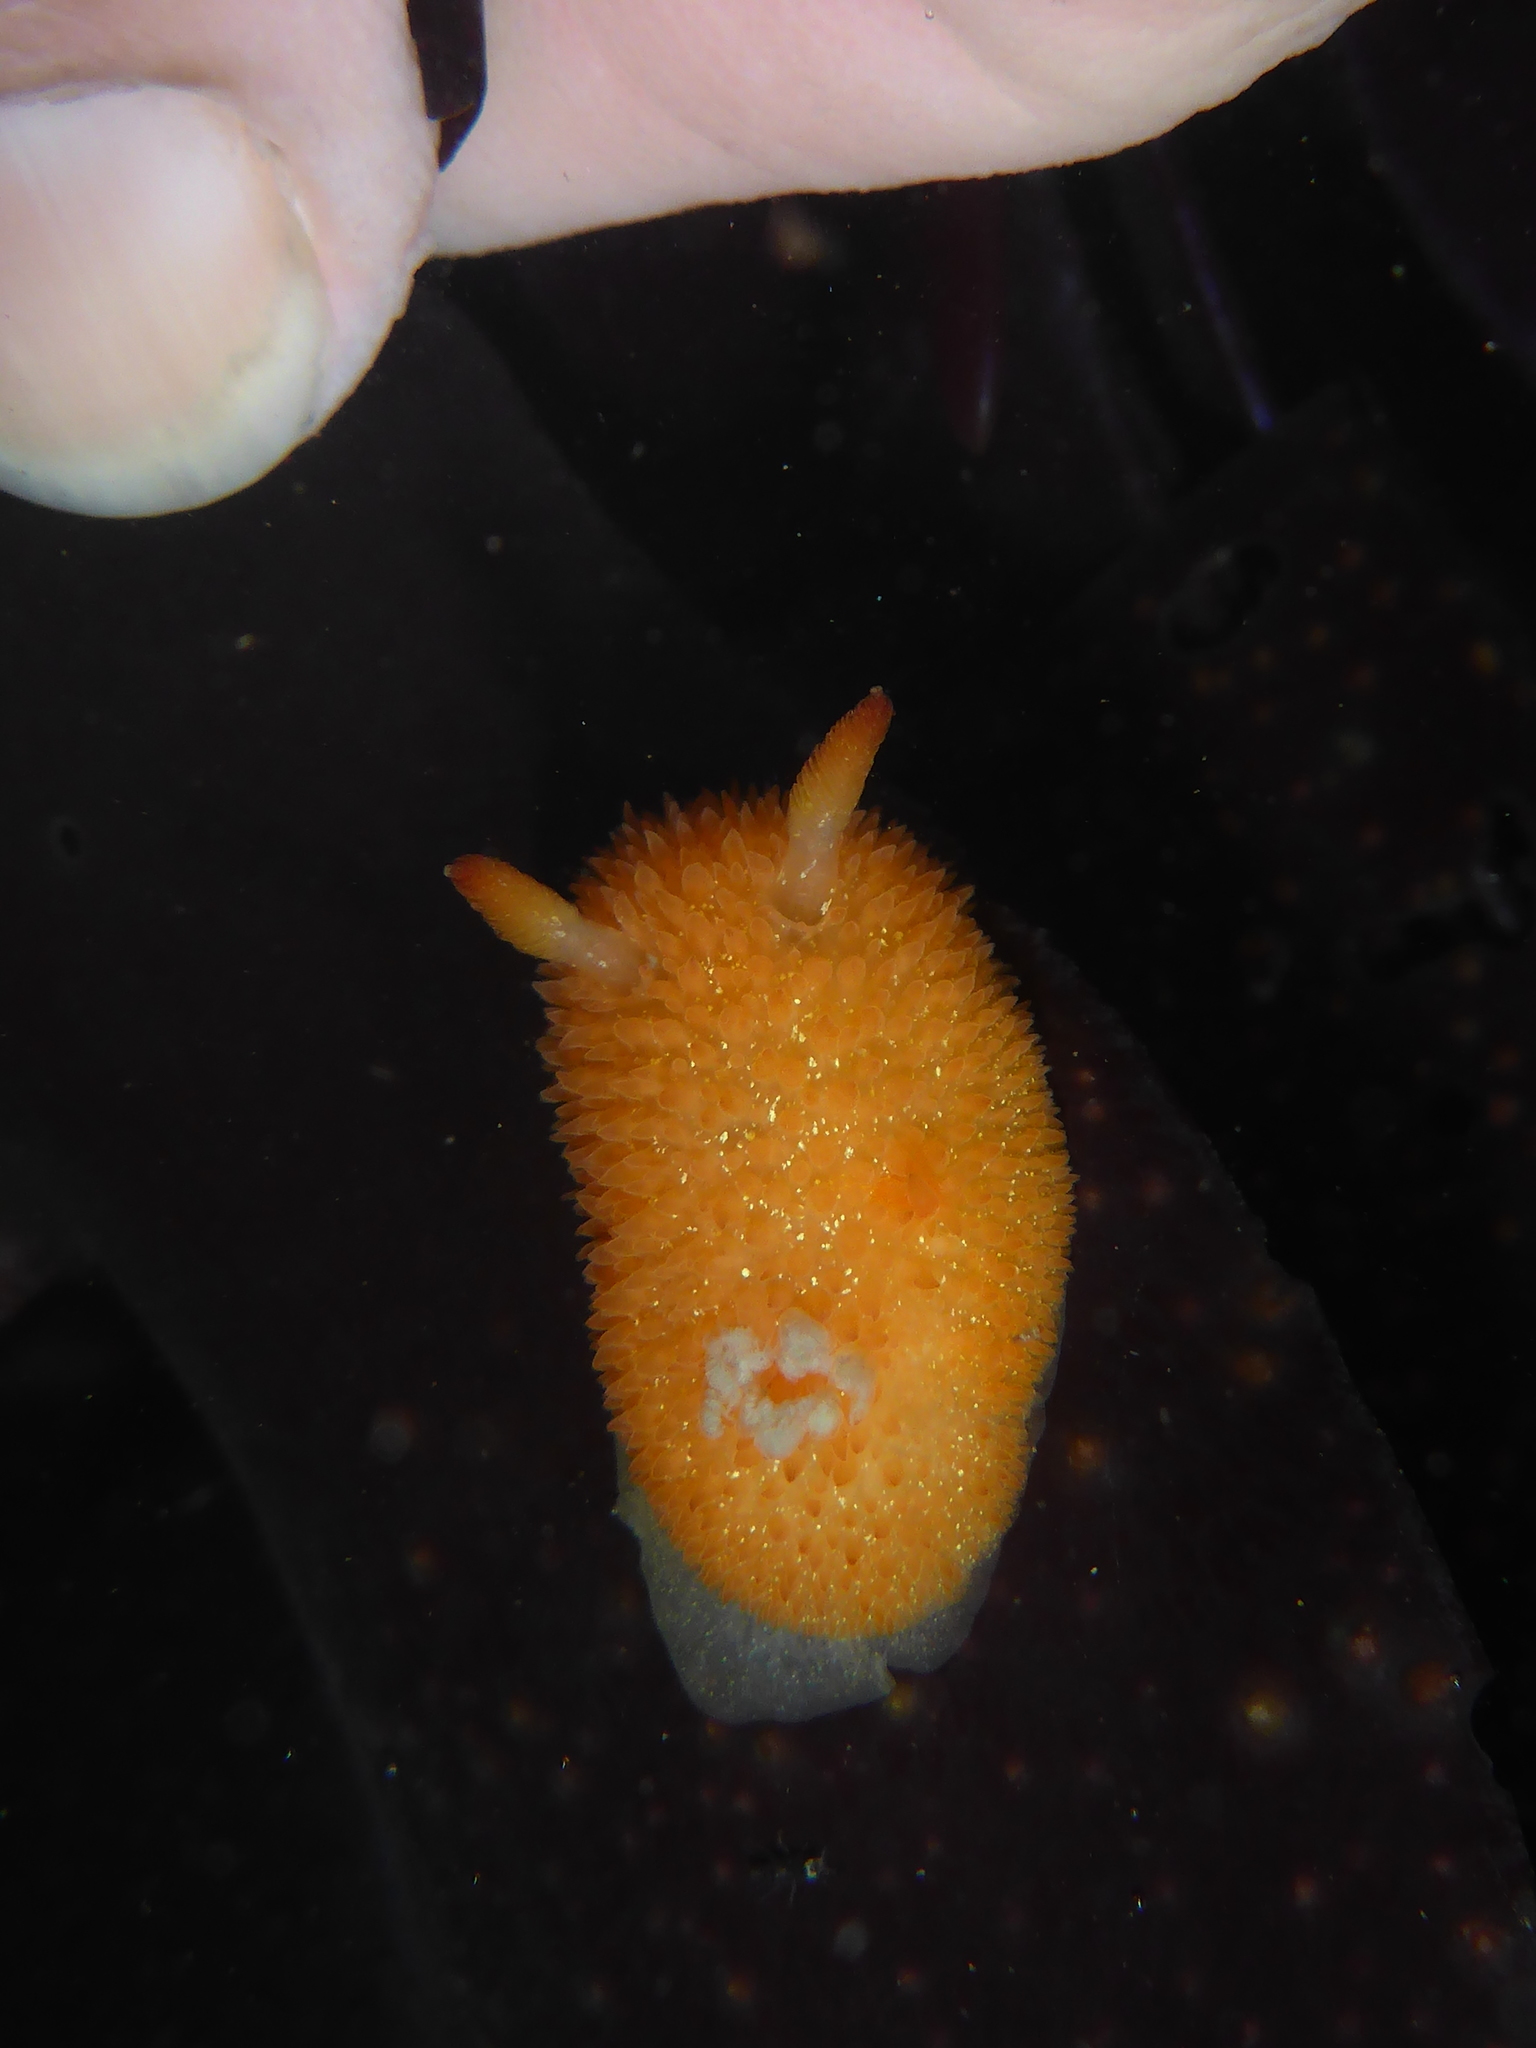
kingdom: Animalia
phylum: Mollusca
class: Gastropoda
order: Nudibranchia
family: Onchidorididae
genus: Acanthodoris
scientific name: Acanthodoris lutea
